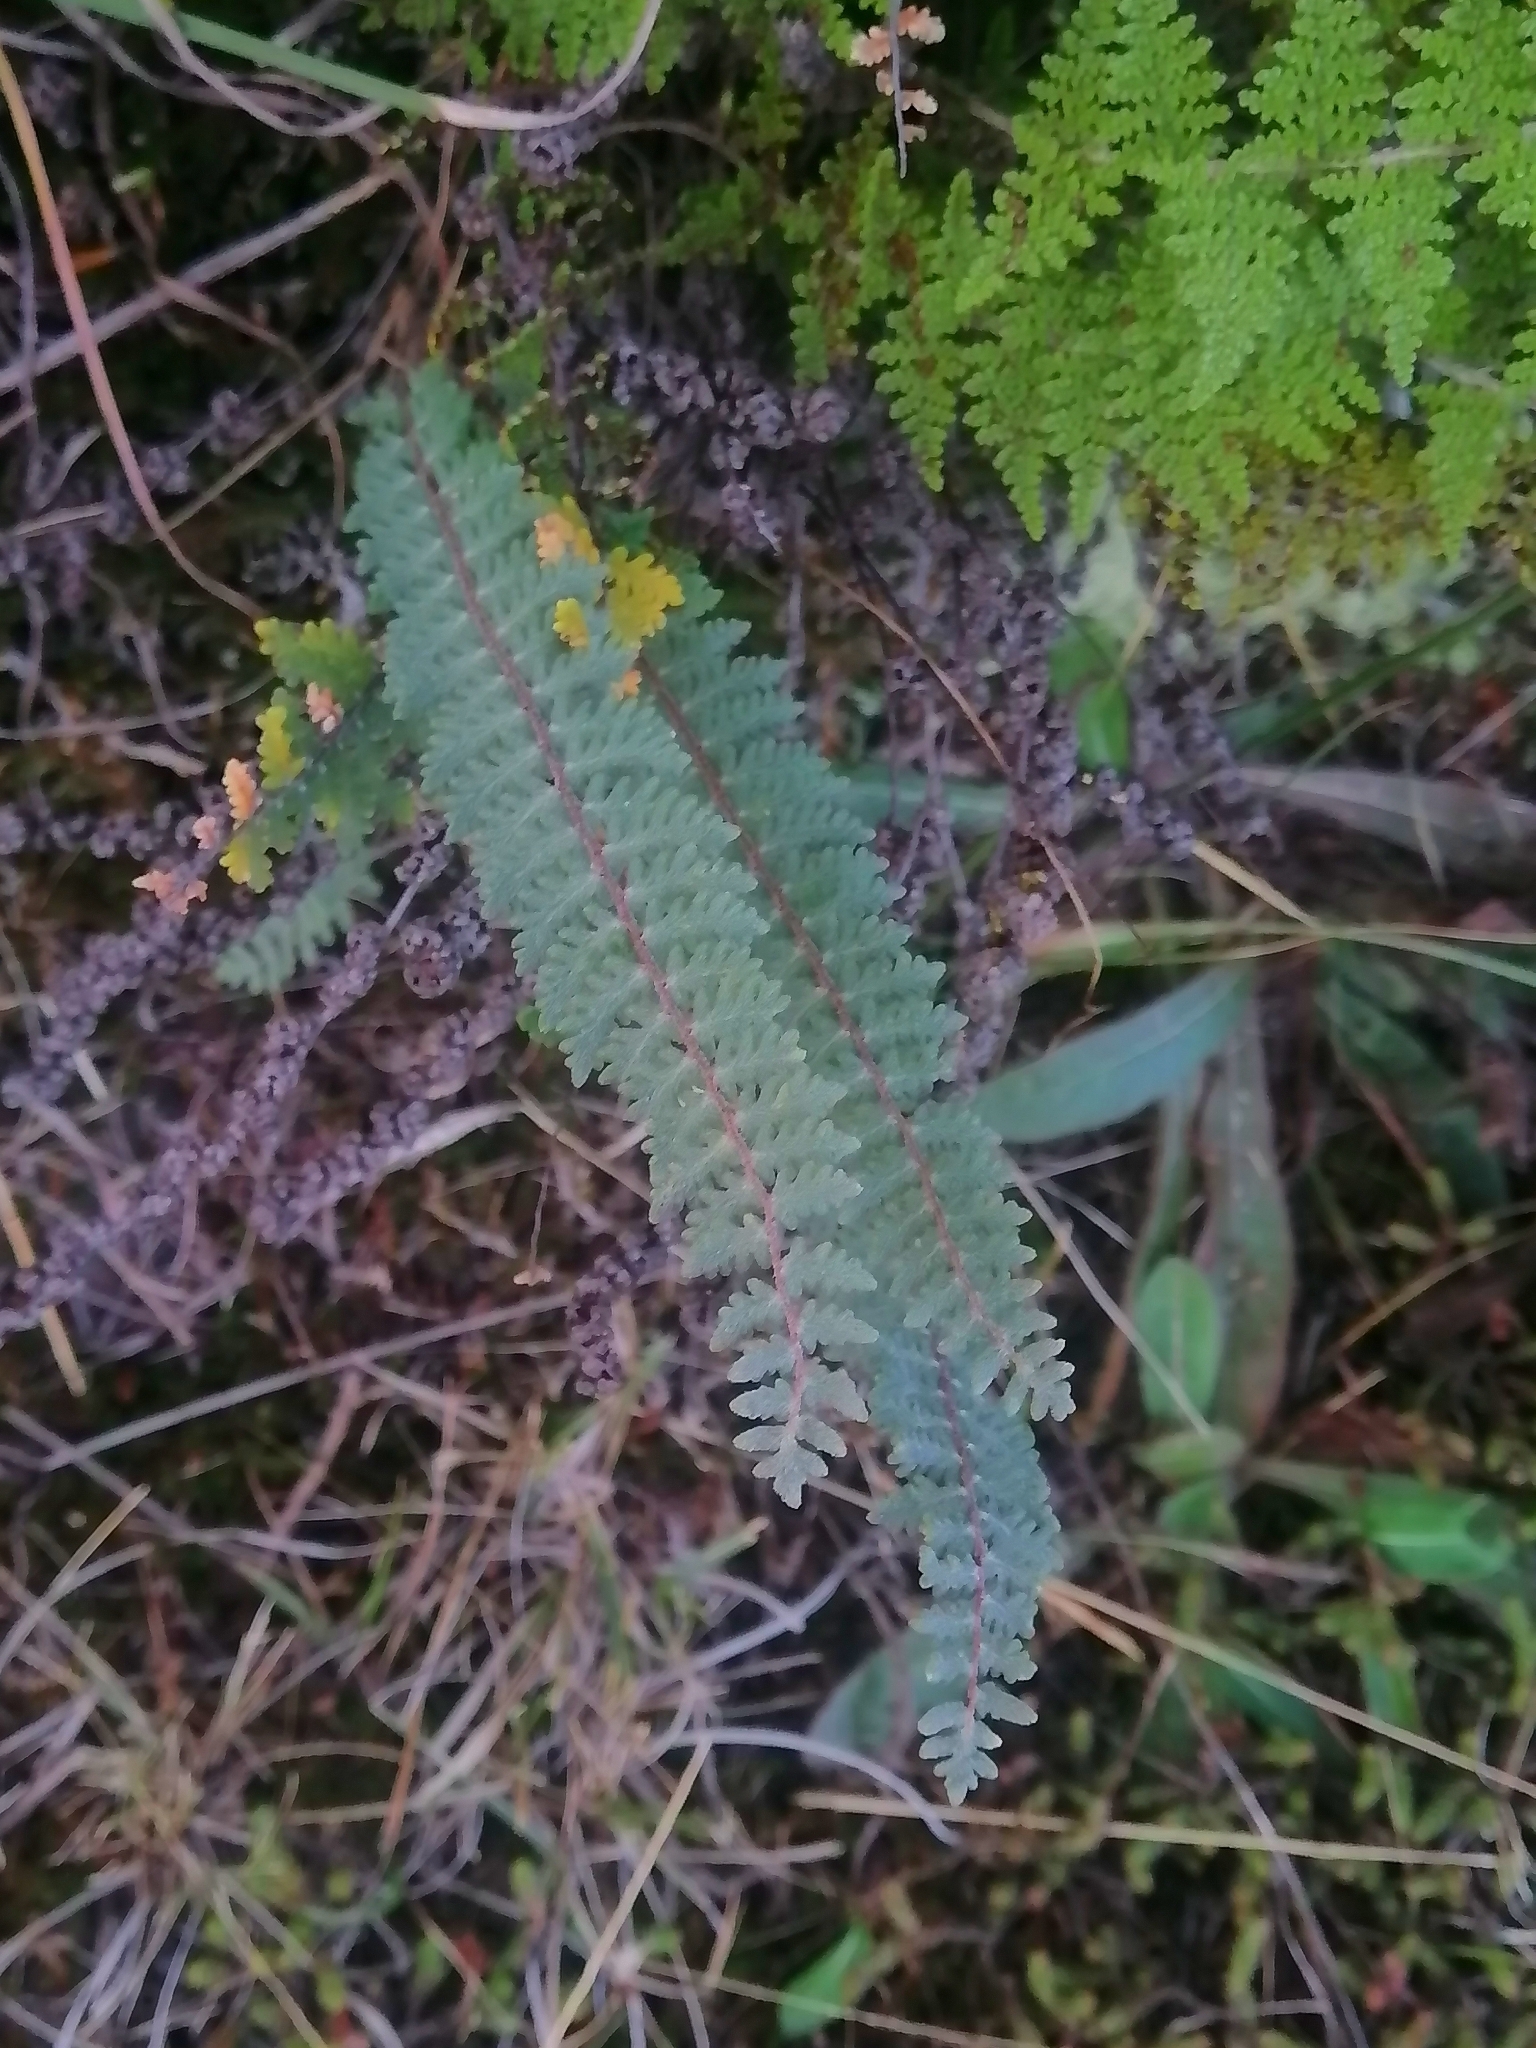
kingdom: Plantae
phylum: Tracheophyta
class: Polypodiopsida
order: Polypodiales
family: Pteridaceae
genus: Myriopteris
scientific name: Myriopteris aurea
